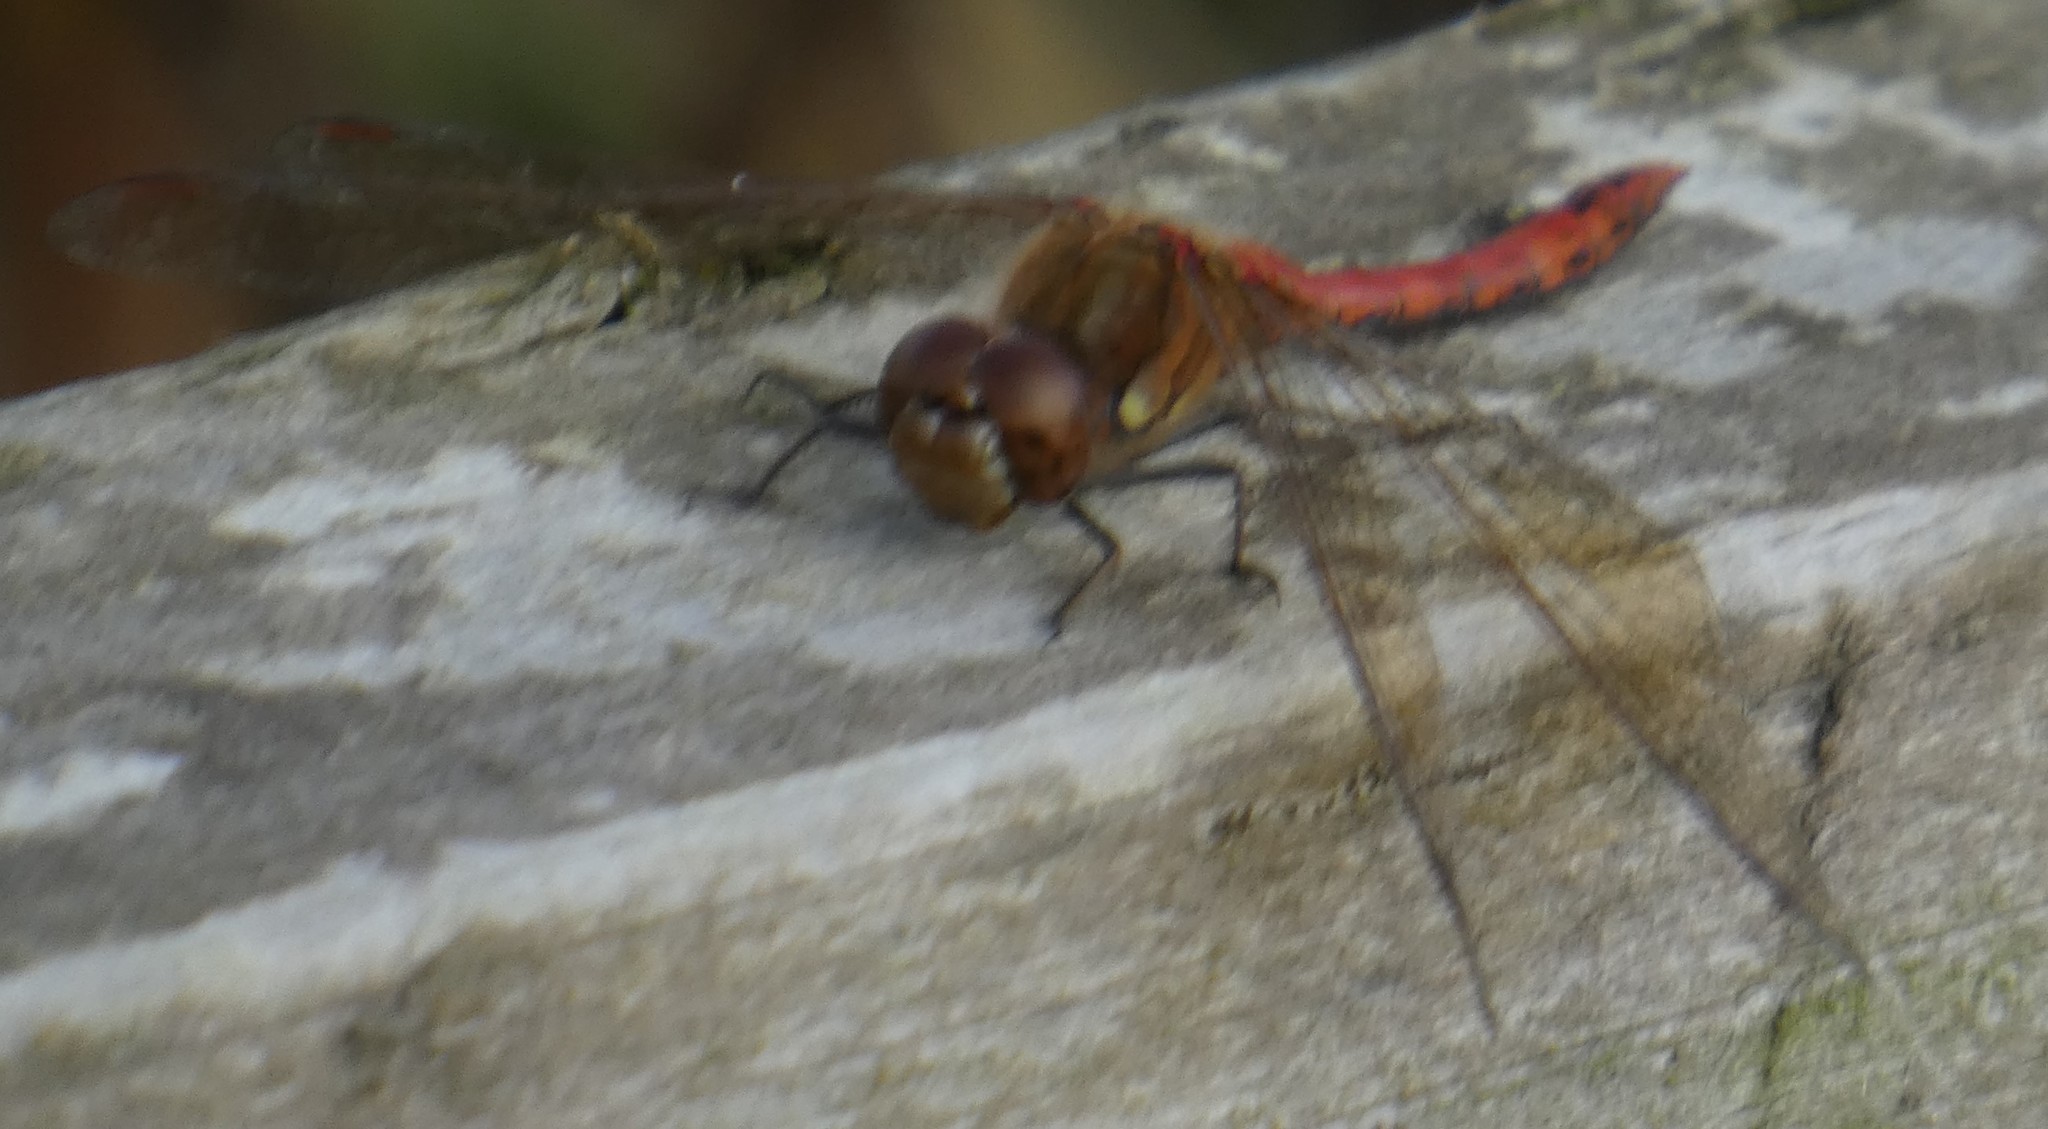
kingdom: Animalia
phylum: Arthropoda
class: Insecta
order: Odonata
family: Libellulidae
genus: Sympetrum
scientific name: Sympetrum striolatum
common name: Common darter
